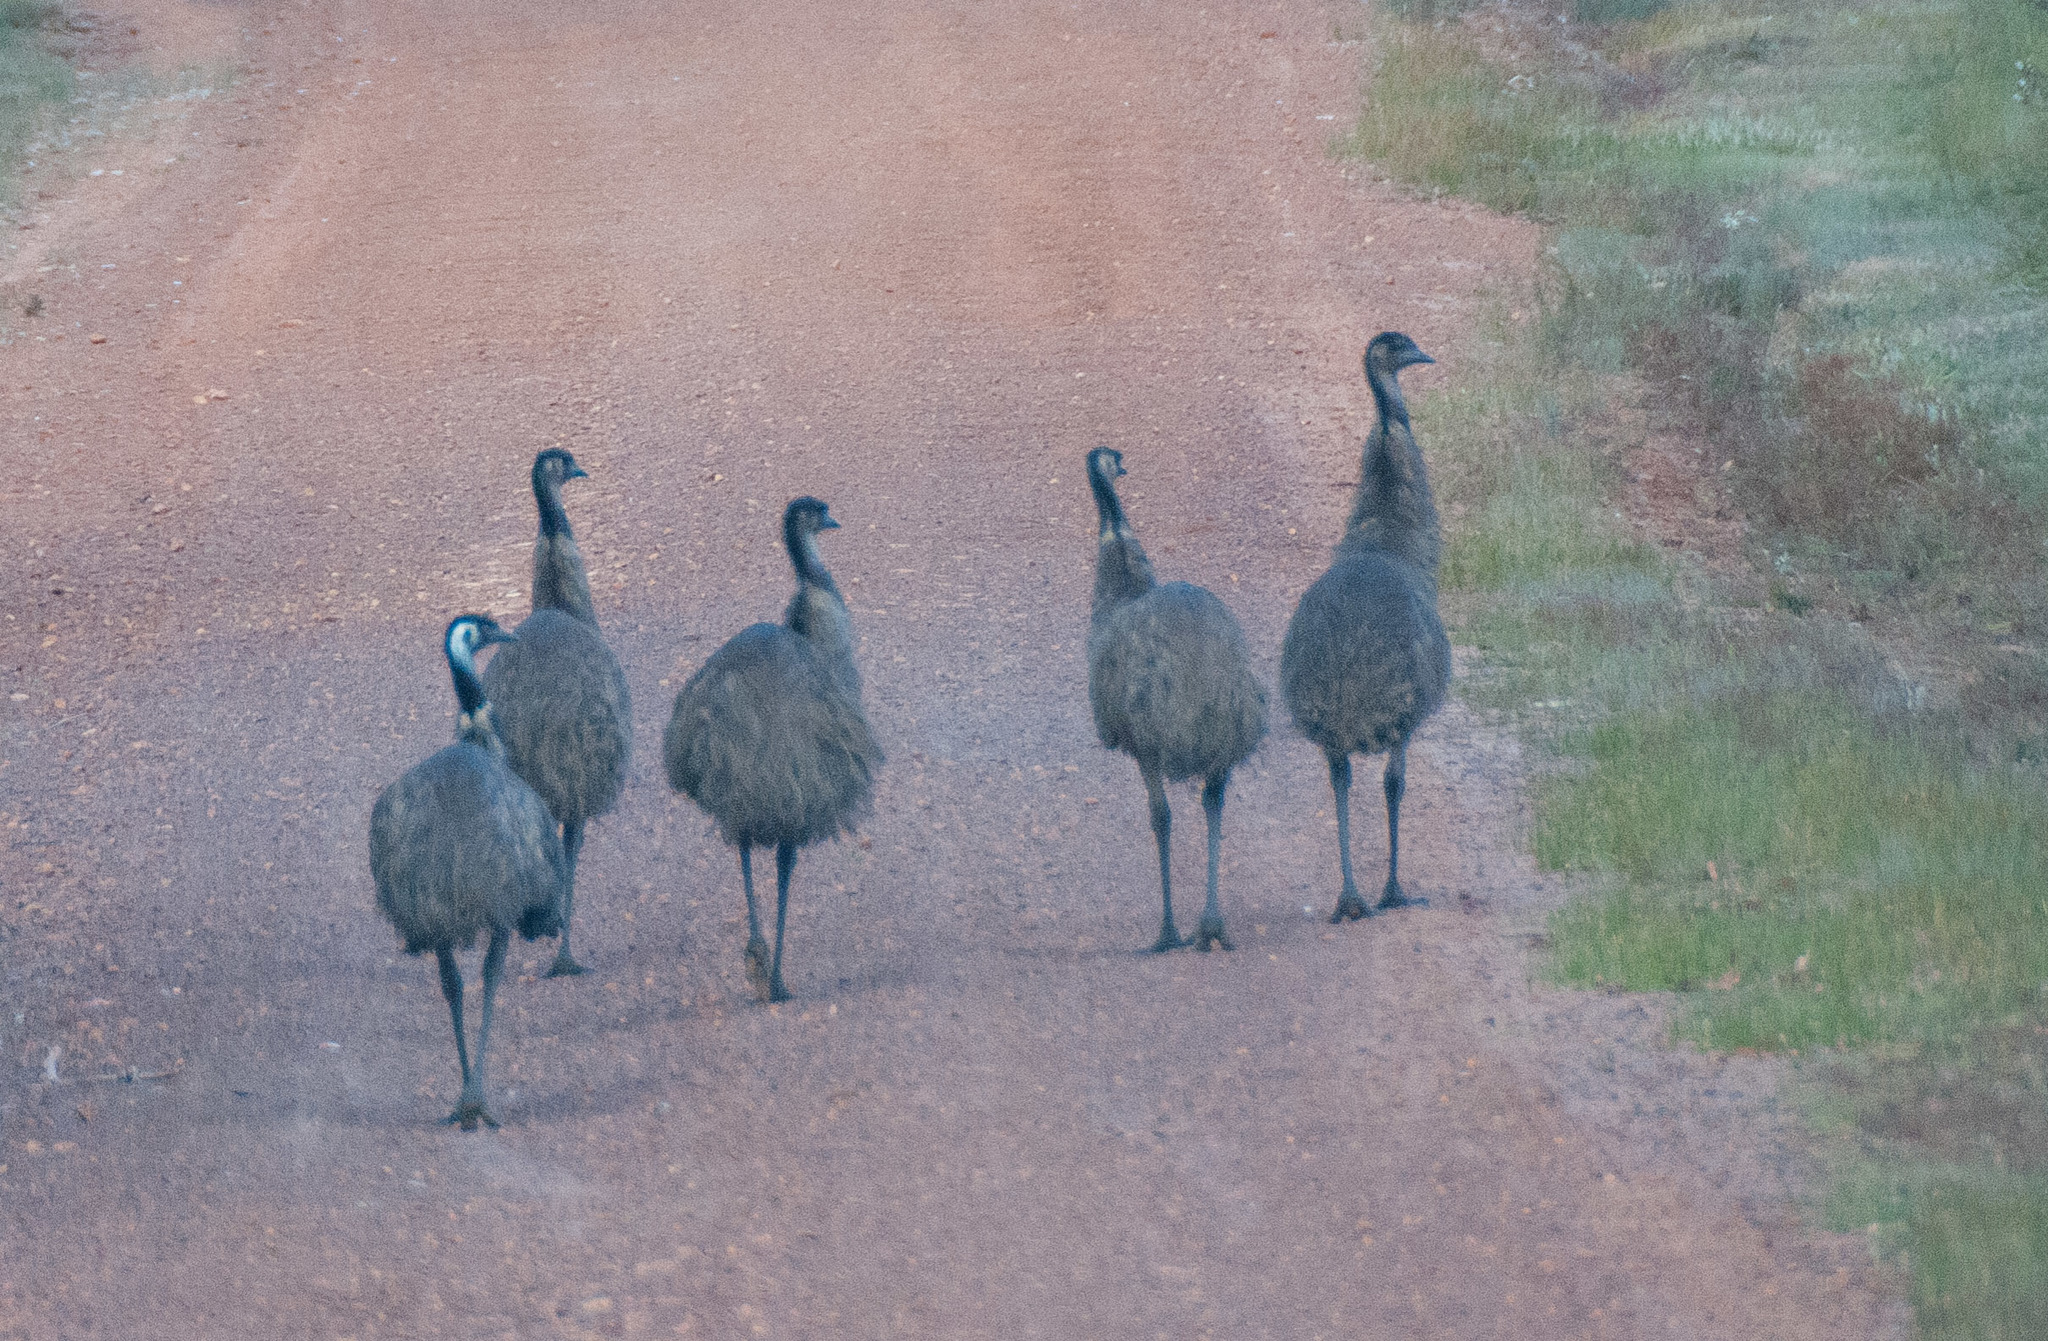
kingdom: Animalia
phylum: Chordata
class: Aves
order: Casuariiformes
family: Dromaiidae
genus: Dromaius
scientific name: Dromaius novaehollandiae
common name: Emu
